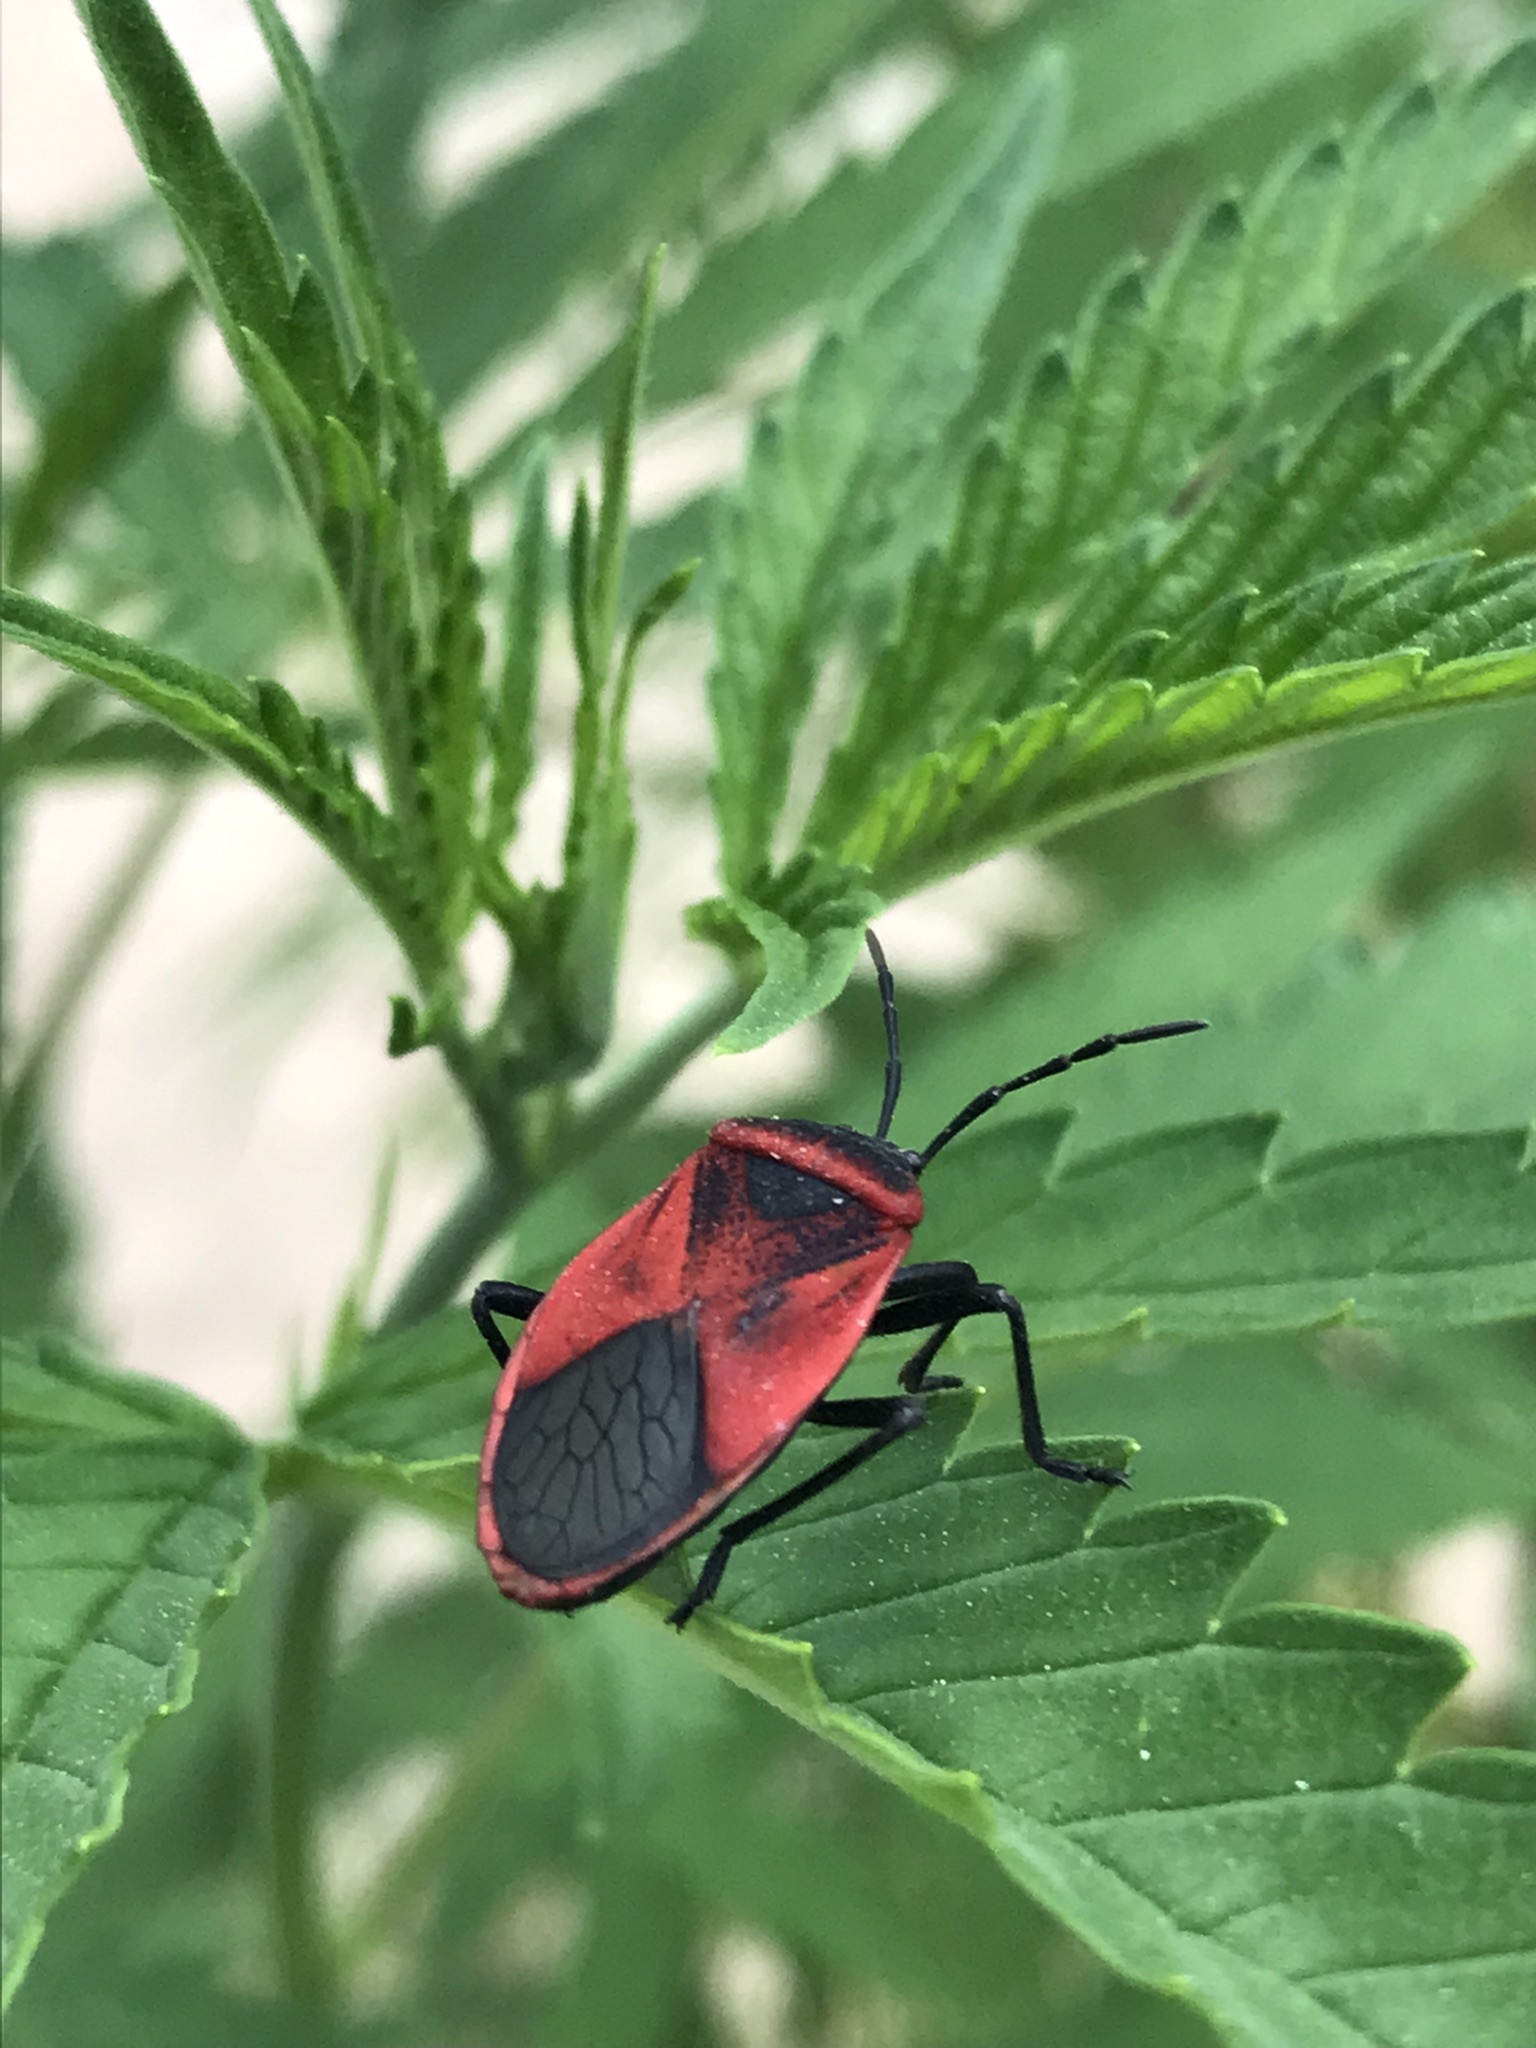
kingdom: Animalia
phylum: Arthropoda
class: Insecta
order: Hemiptera
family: Largidae
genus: Largus
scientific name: Largus rufipennis
